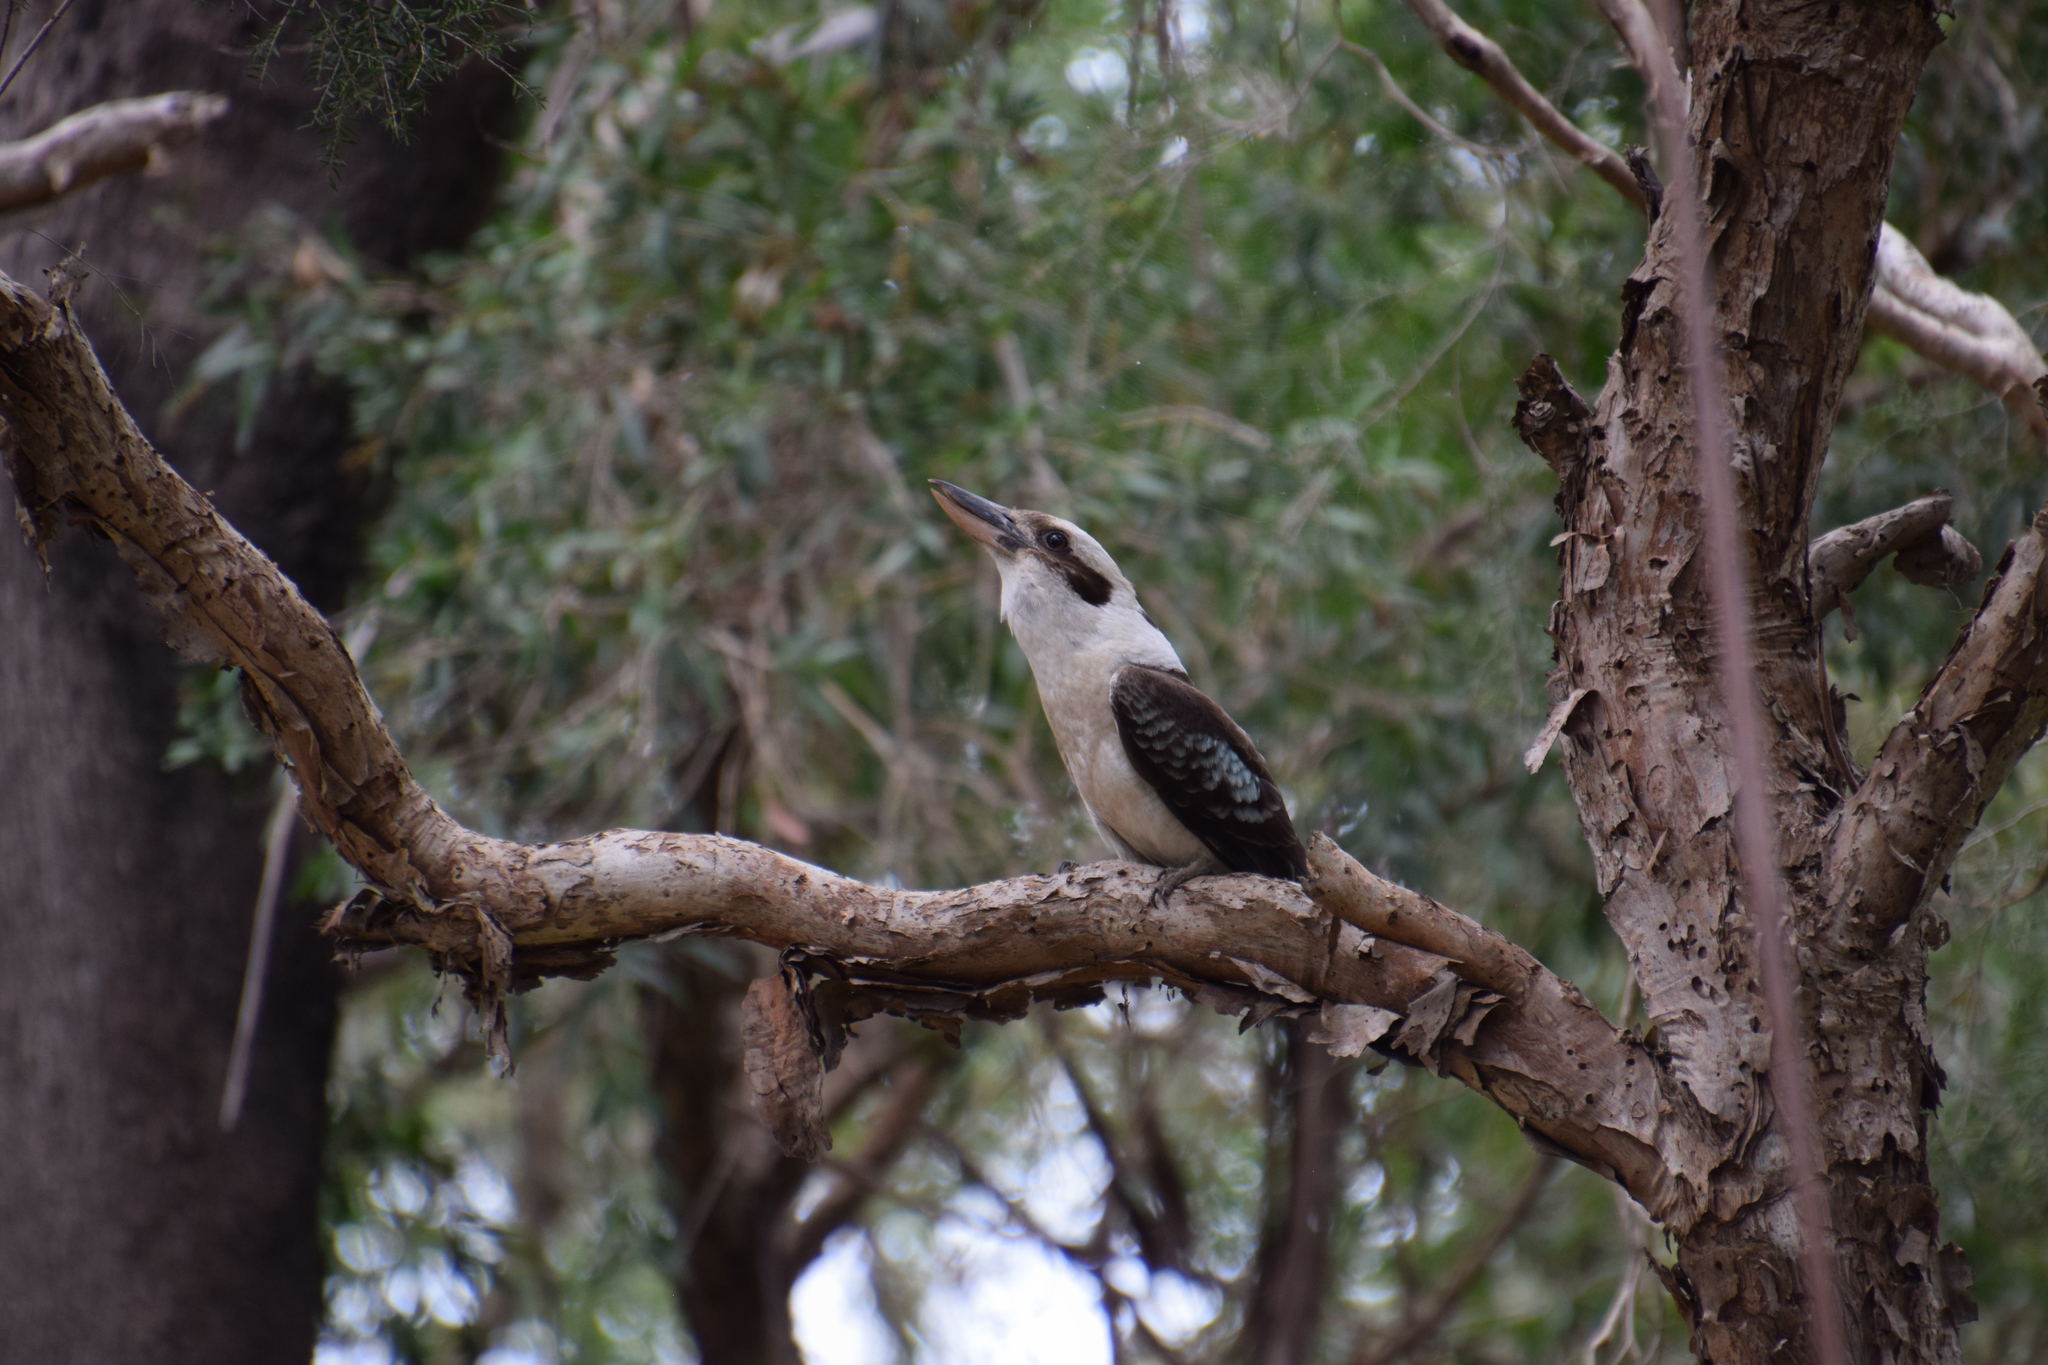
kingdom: Animalia
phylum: Chordata
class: Aves
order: Coraciiformes
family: Alcedinidae
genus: Dacelo
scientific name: Dacelo novaeguineae
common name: Laughing kookaburra
